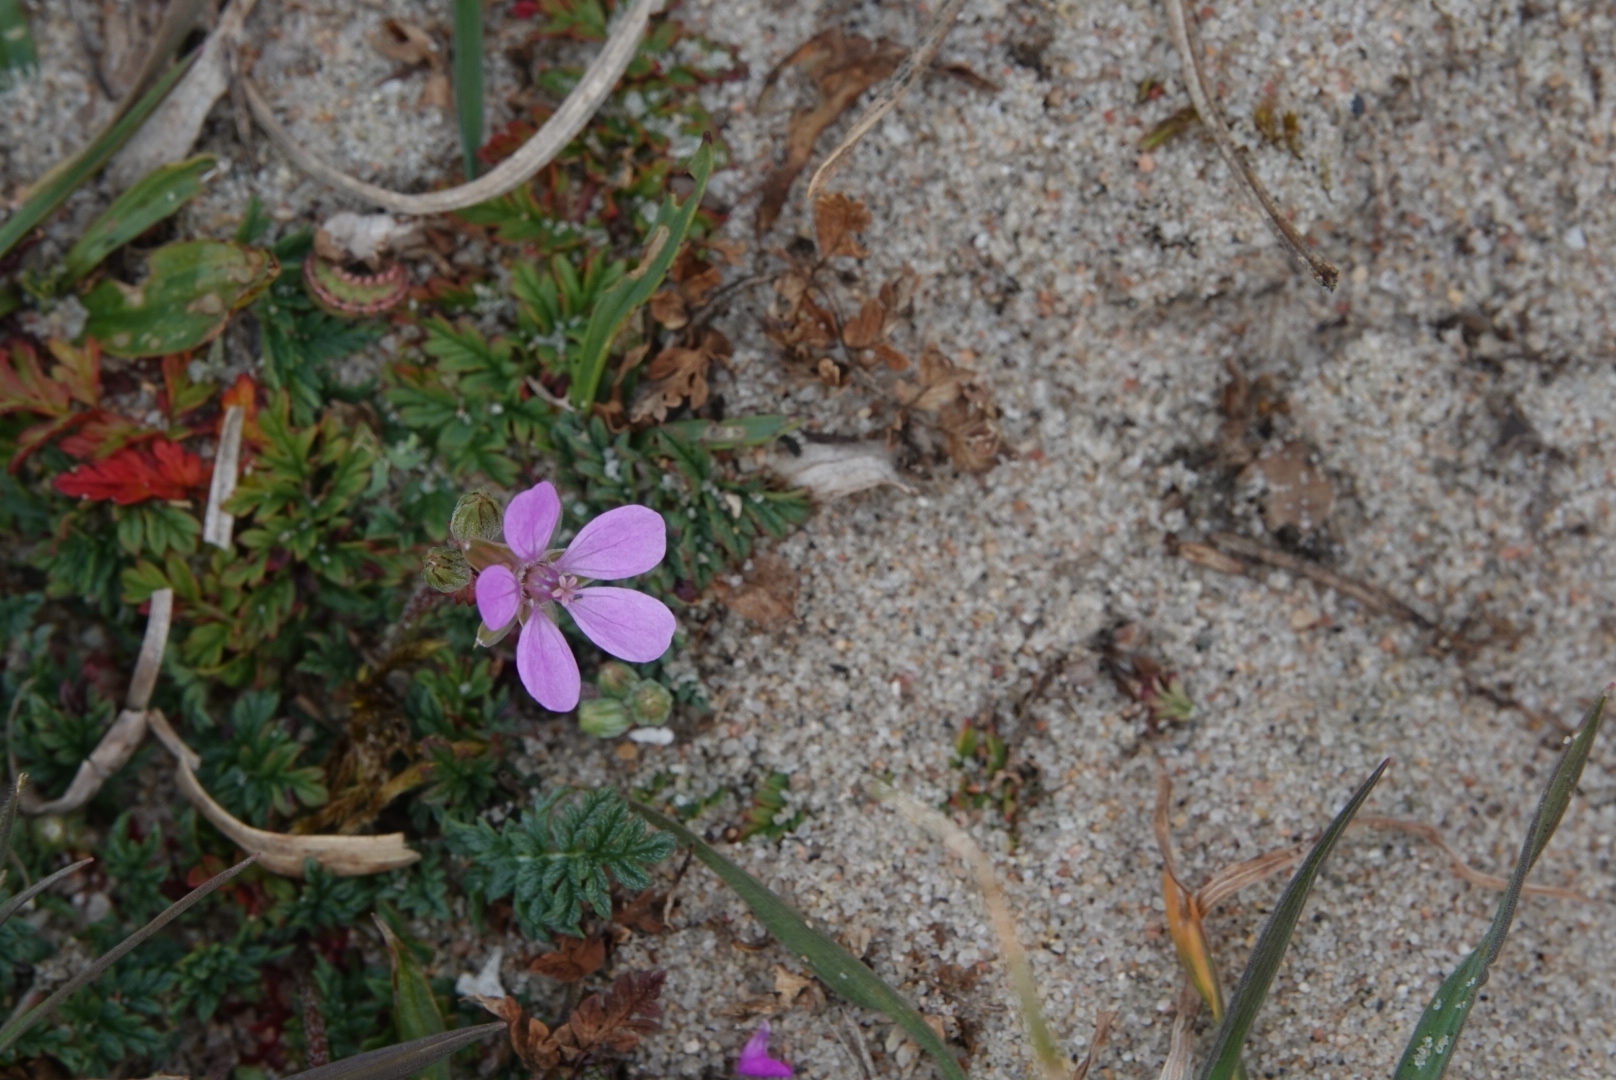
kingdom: Plantae
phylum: Tracheophyta
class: Magnoliopsida
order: Geraniales
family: Geraniaceae
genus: Erodium
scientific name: Erodium cicutarium
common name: Common stork's-bill
